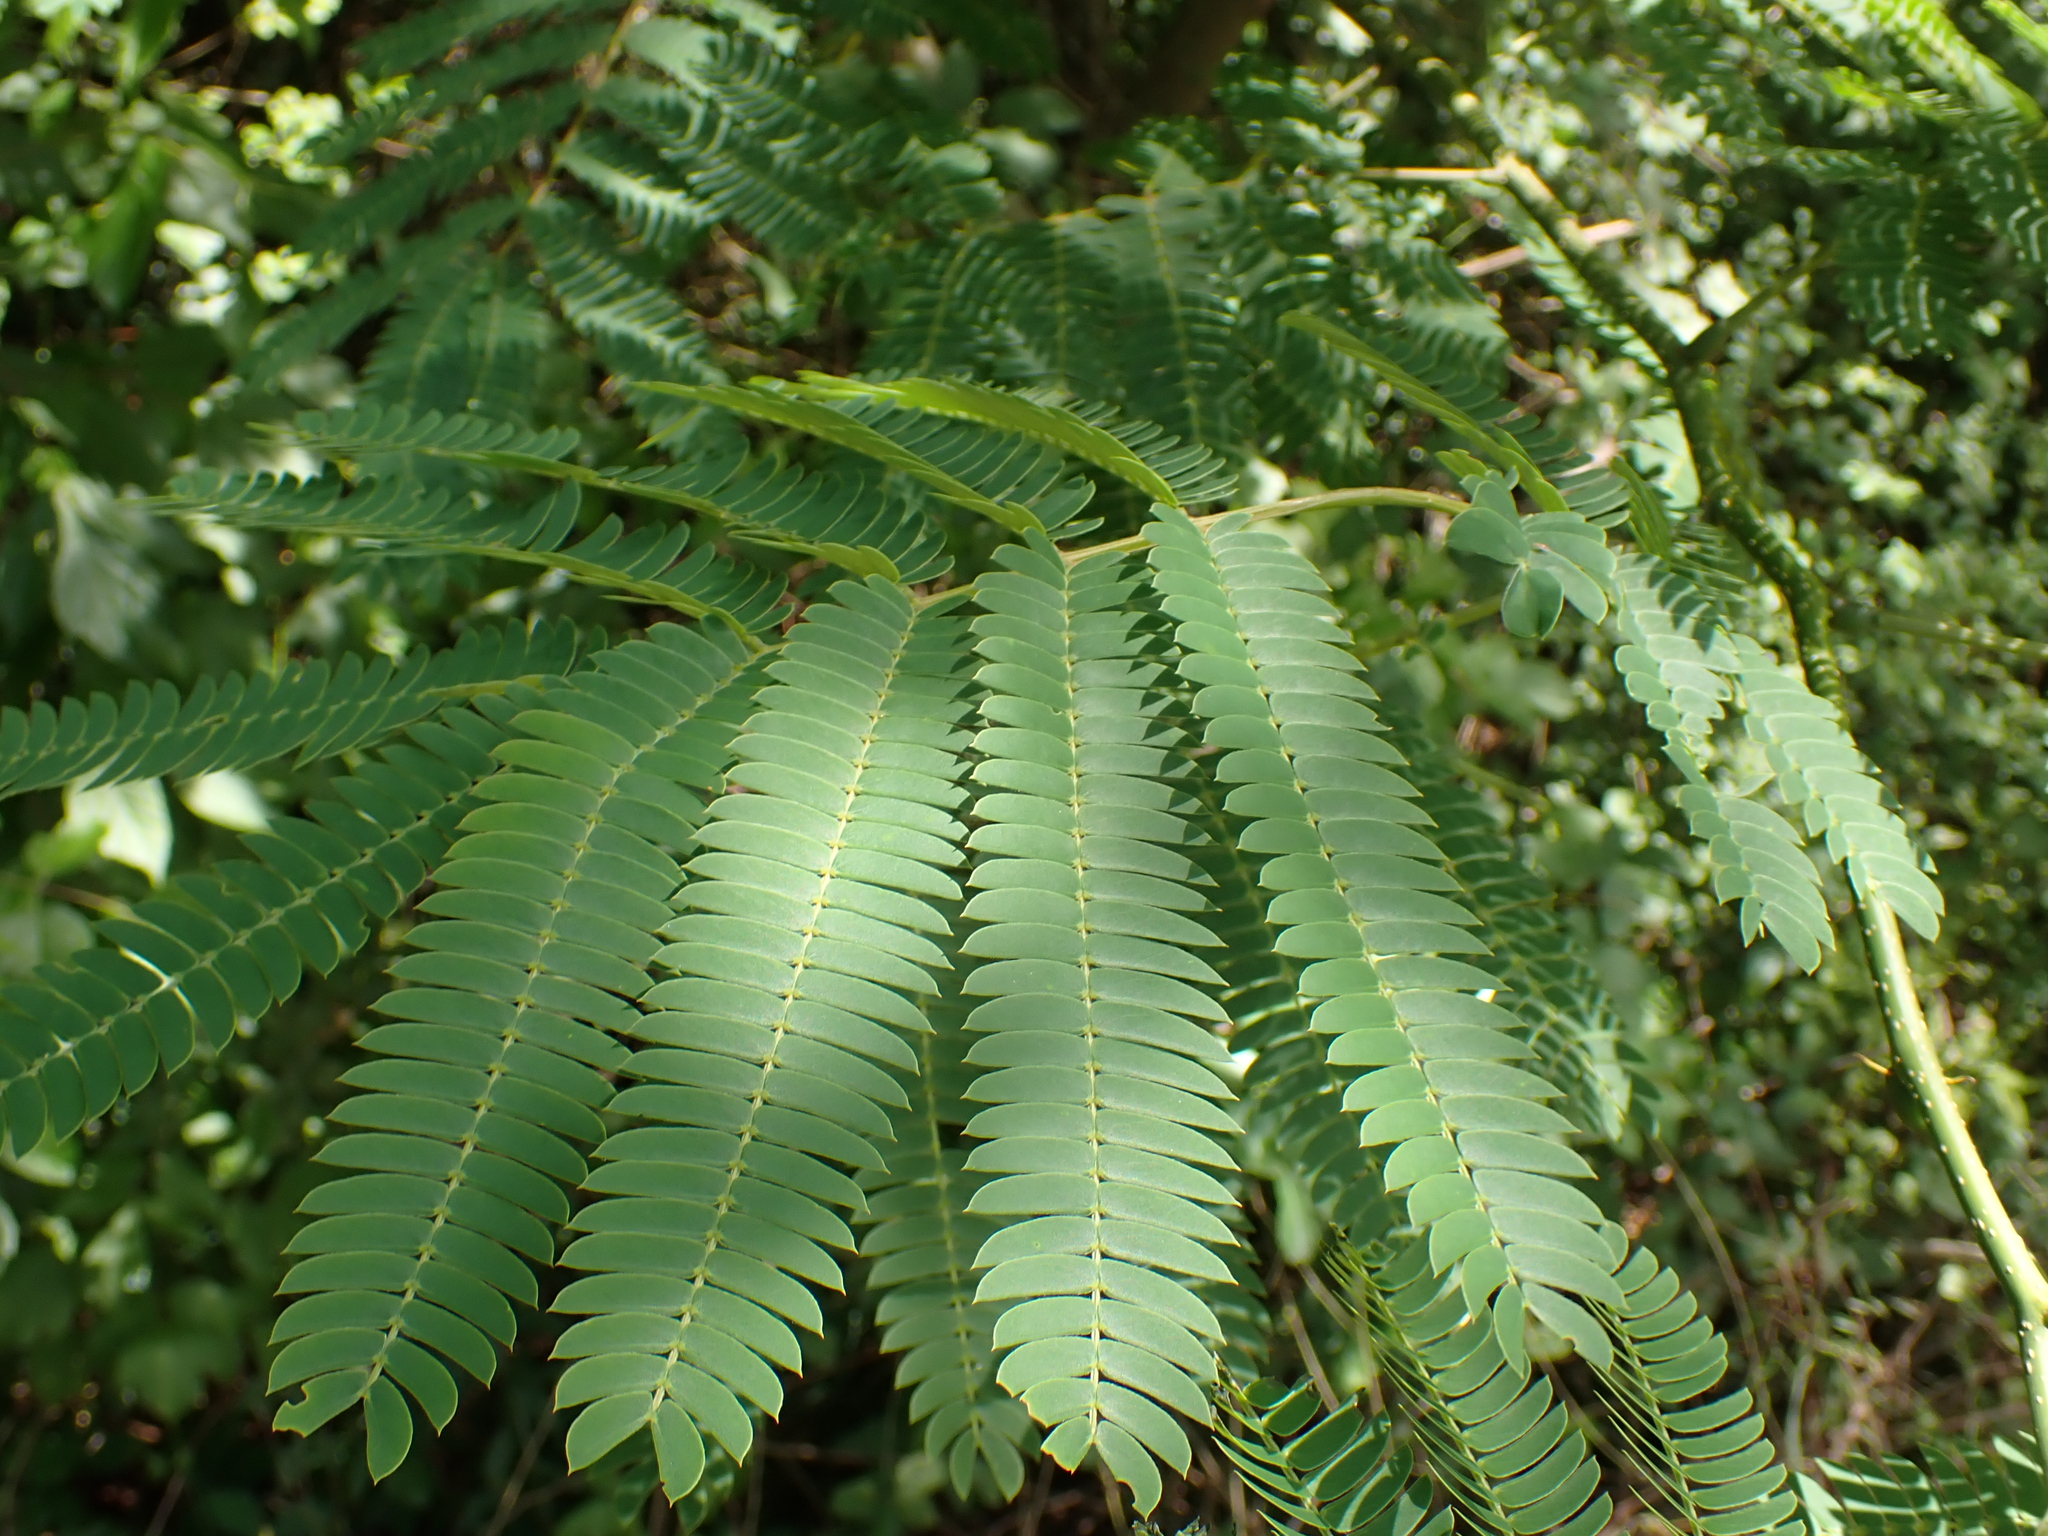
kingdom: Plantae
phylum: Tracheophyta
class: Magnoliopsida
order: Fabales
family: Fabaceae
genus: Albizia
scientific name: Albizia julibrissin
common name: Silktree
